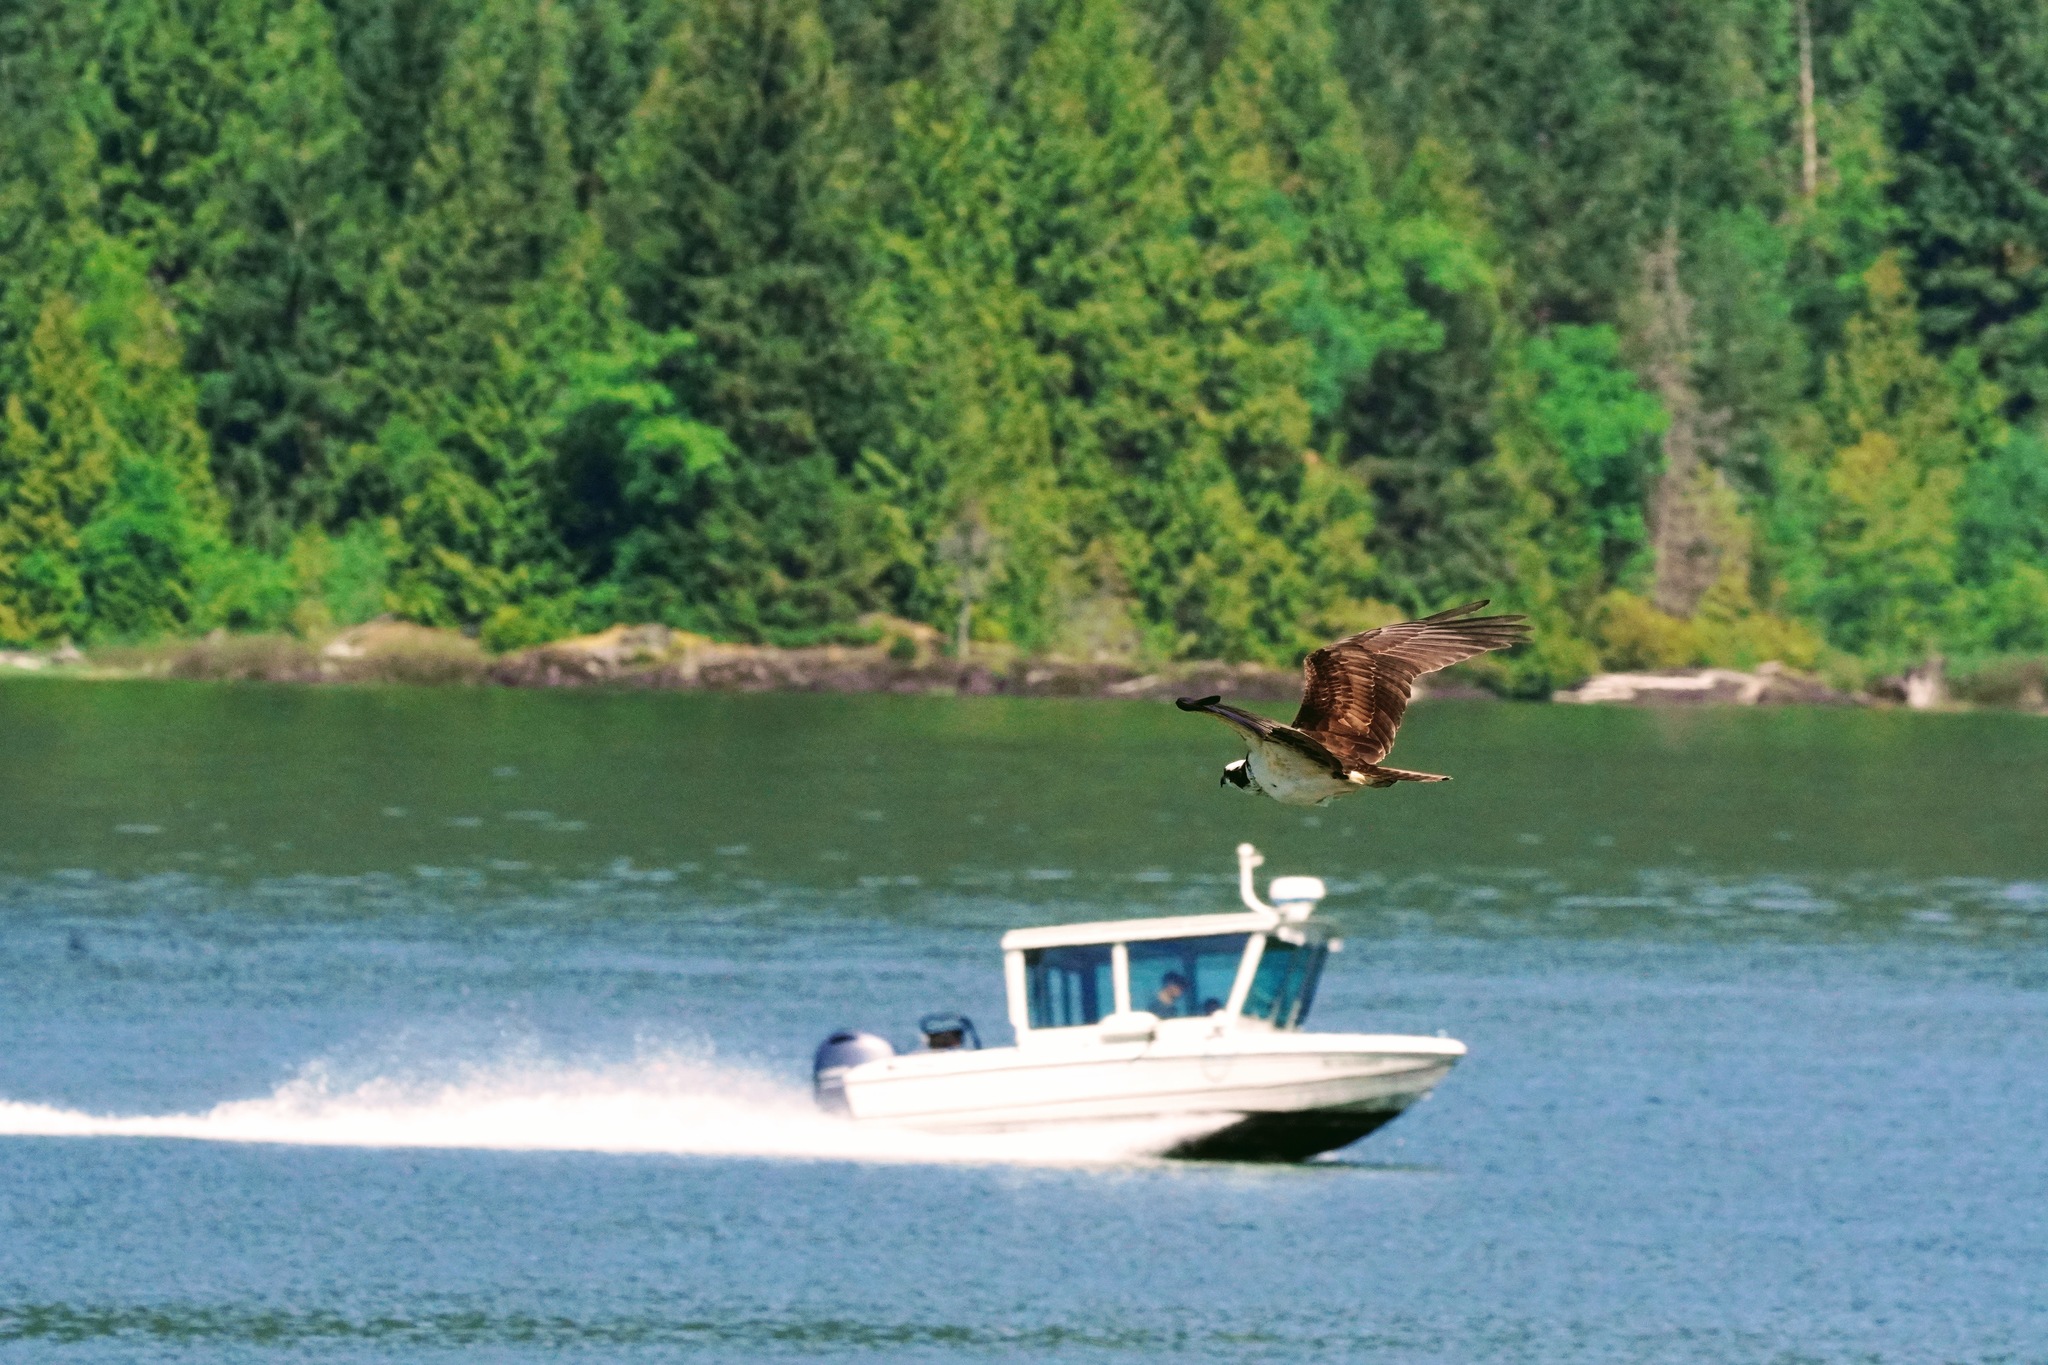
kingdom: Animalia
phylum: Chordata
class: Aves
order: Accipitriformes
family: Pandionidae
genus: Pandion
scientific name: Pandion haliaetus
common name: Osprey
